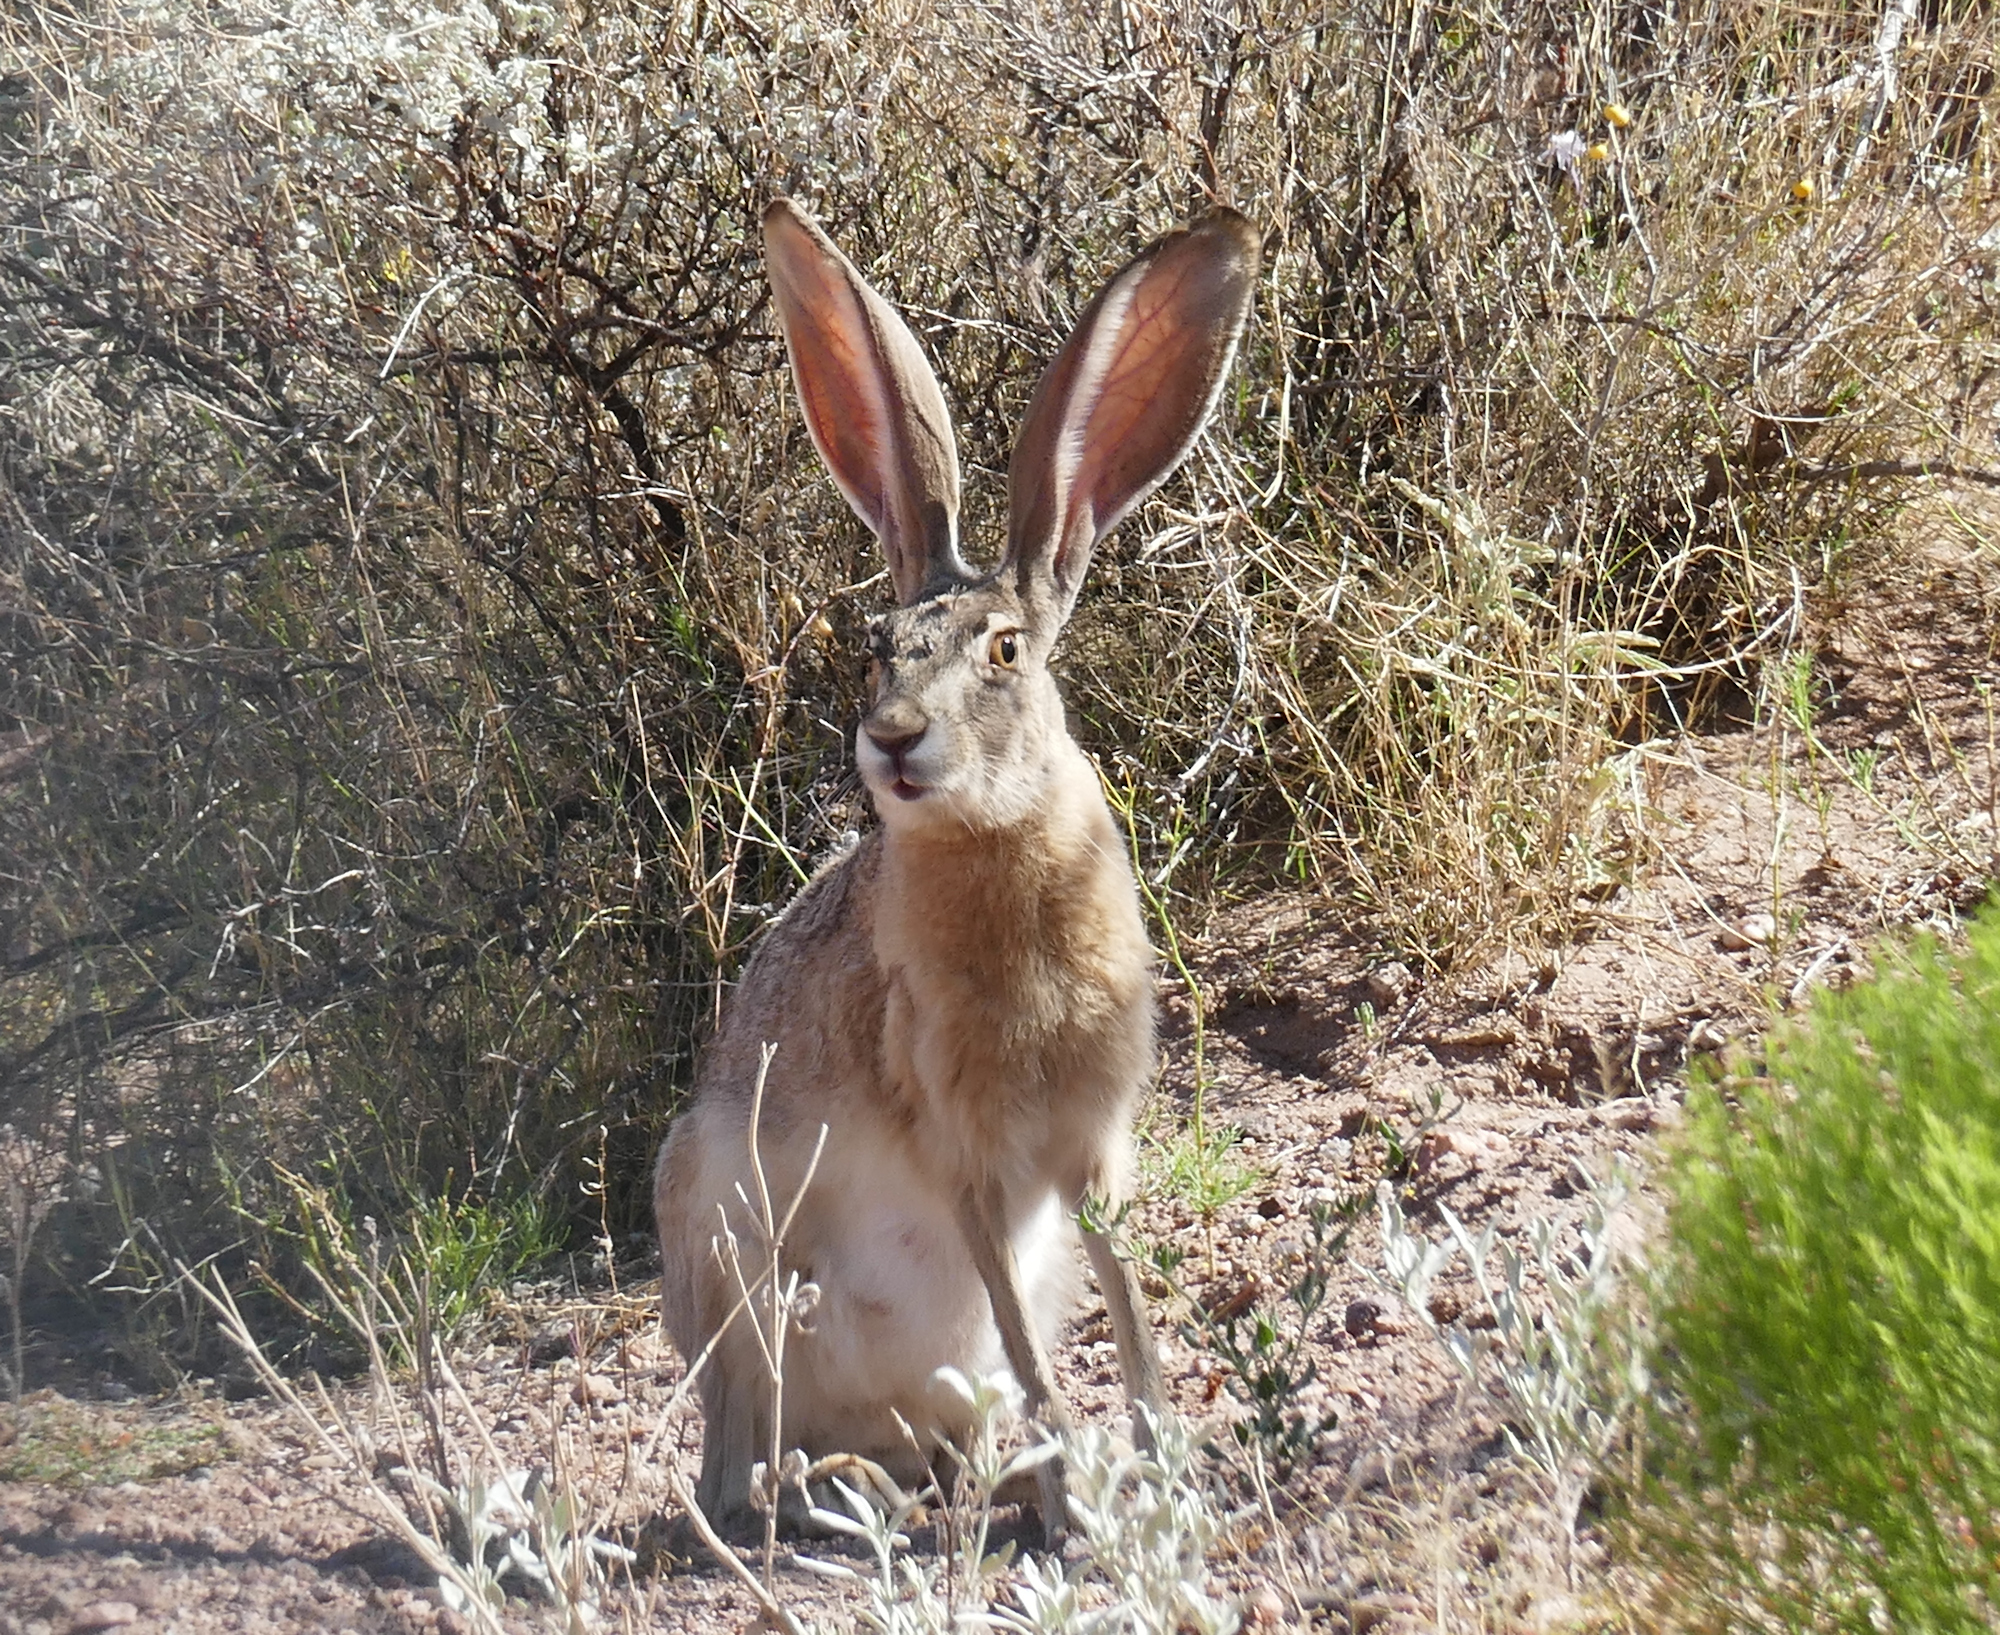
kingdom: Animalia
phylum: Chordata
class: Mammalia
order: Lagomorpha
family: Leporidae
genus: Lepus
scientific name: Lepus californicus
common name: Black-tailed jackrabbit
